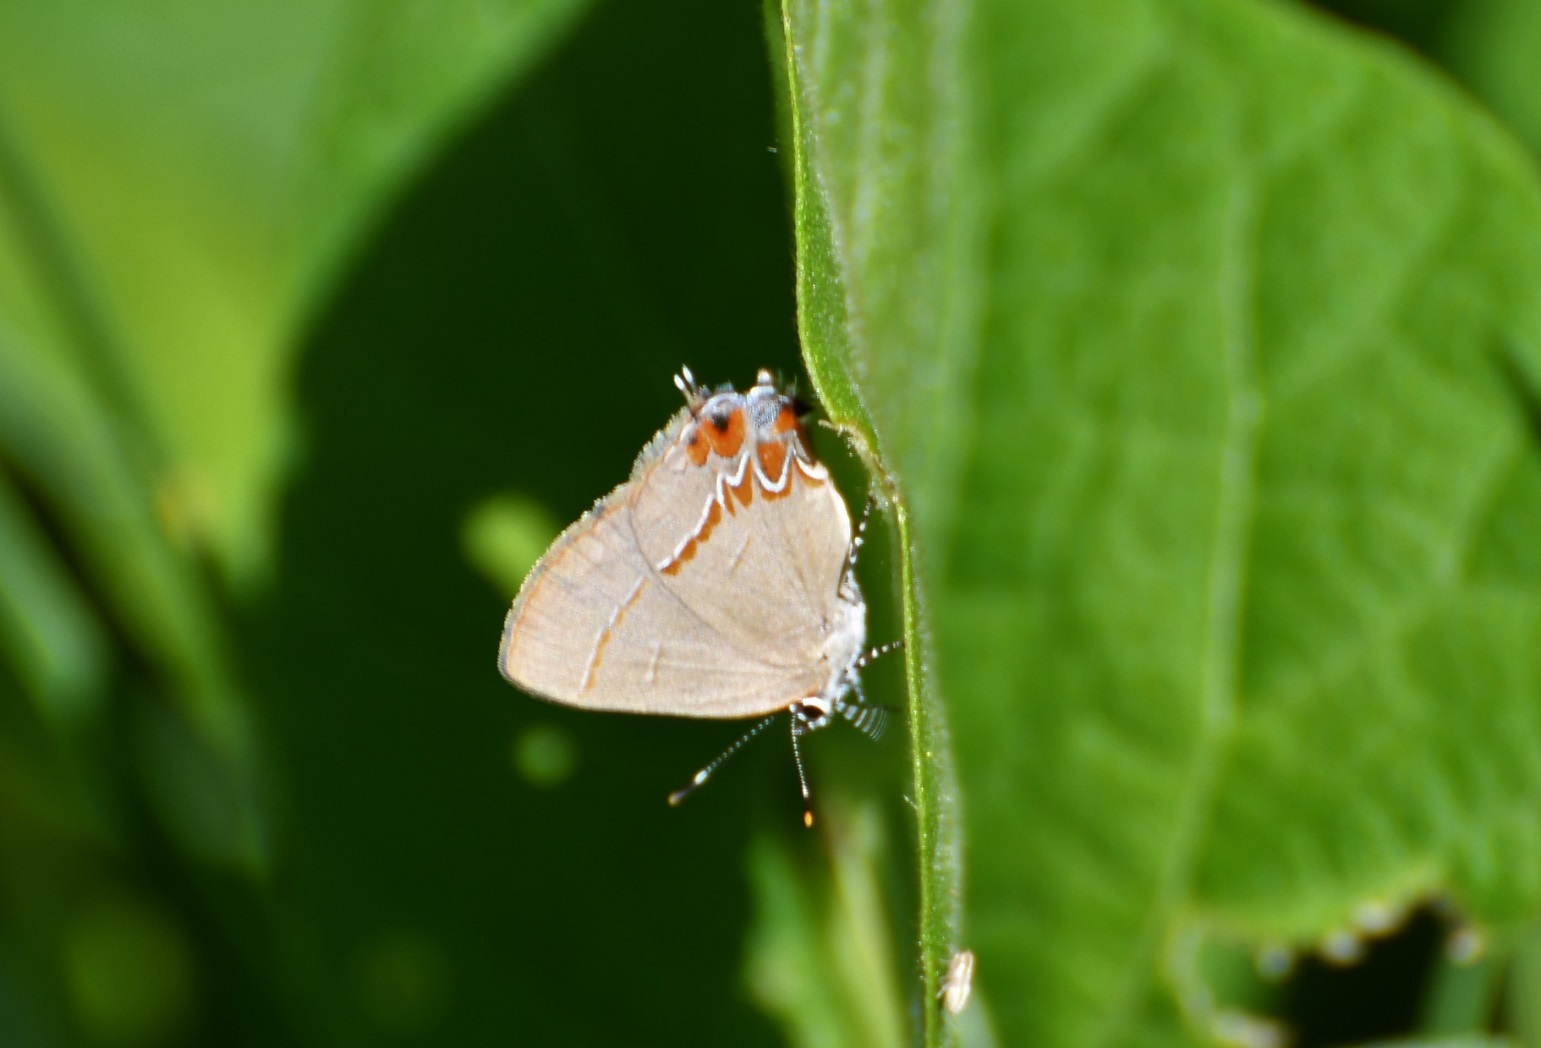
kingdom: Animalia
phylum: Arthropoda
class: Insecta
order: Lepidoptera
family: Lycaenidae
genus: Calycopis
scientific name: Calycopis isobeon
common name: Dusky-blue groundstreak
